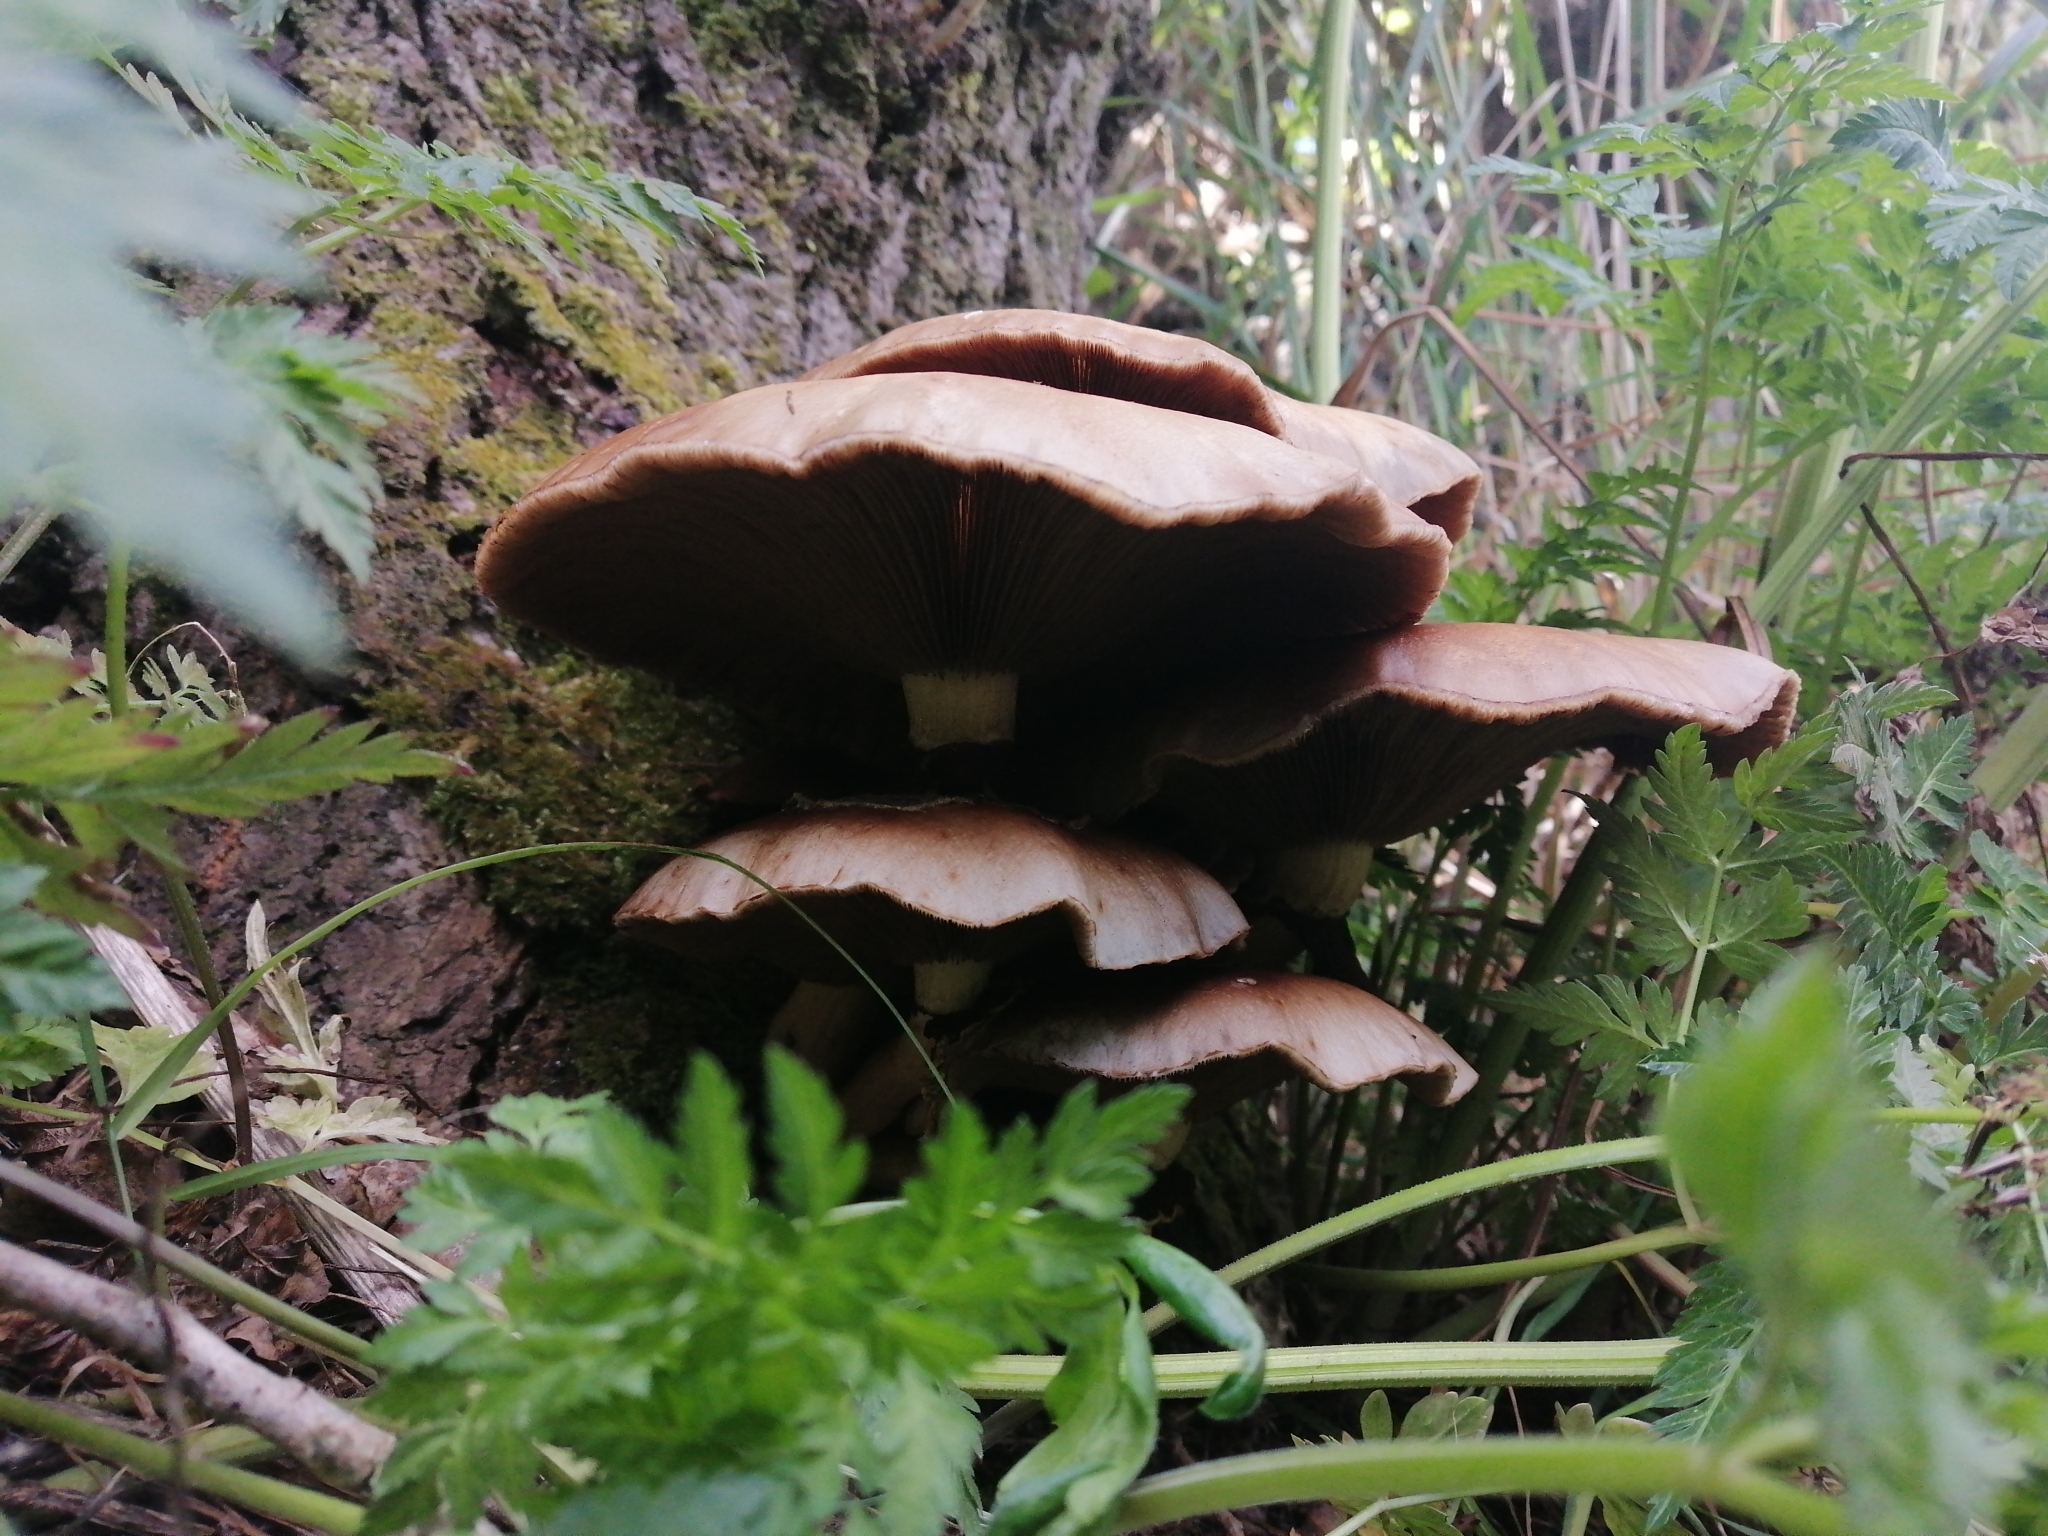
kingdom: Fungi
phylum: Basidiomycota
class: Agaricomycetes
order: Agaricales
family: Tubariaceae
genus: Cyclocybe
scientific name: Cyclocybe parasitica
